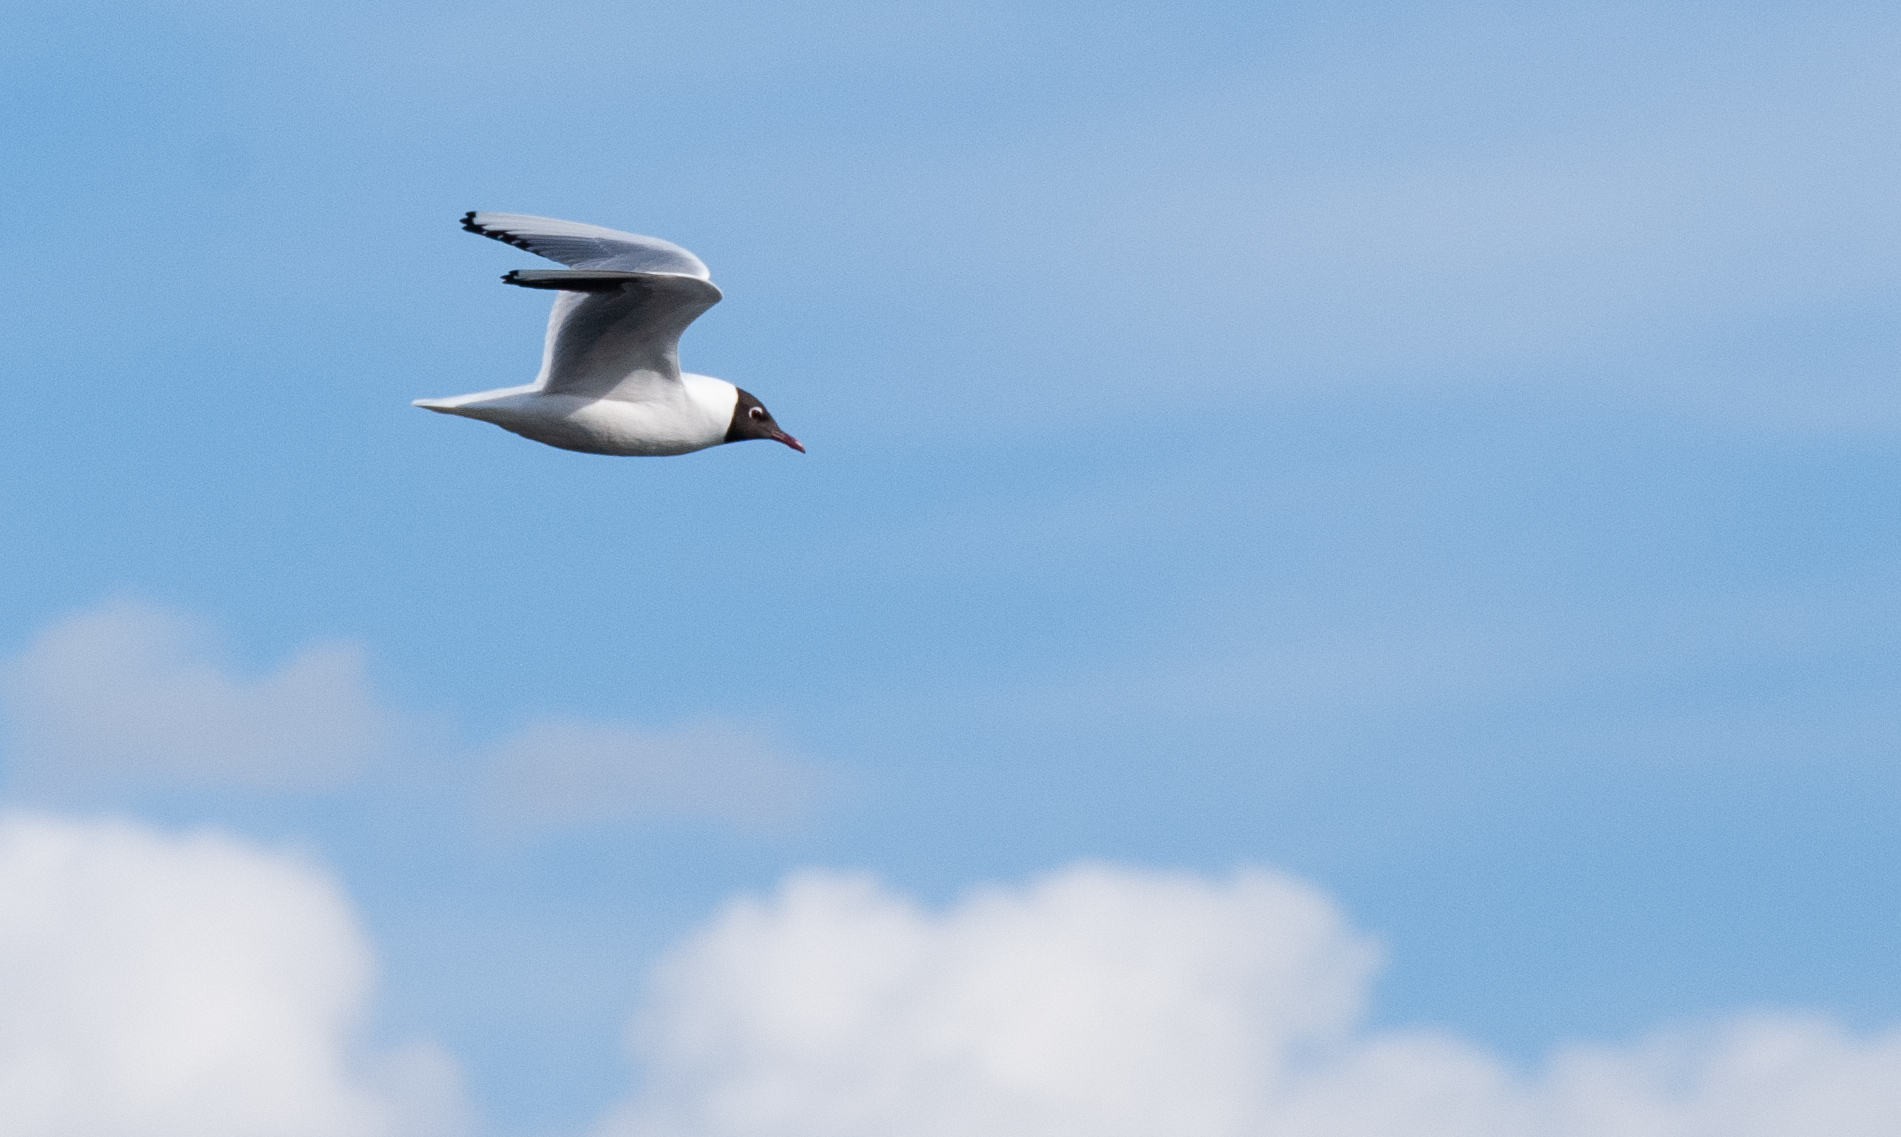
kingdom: Animalia
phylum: Chordata
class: Aves
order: Charadriiformes
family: Laridae
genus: Chroicocephalus
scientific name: Chroicocephalus ridibundus
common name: Black-headed gull
